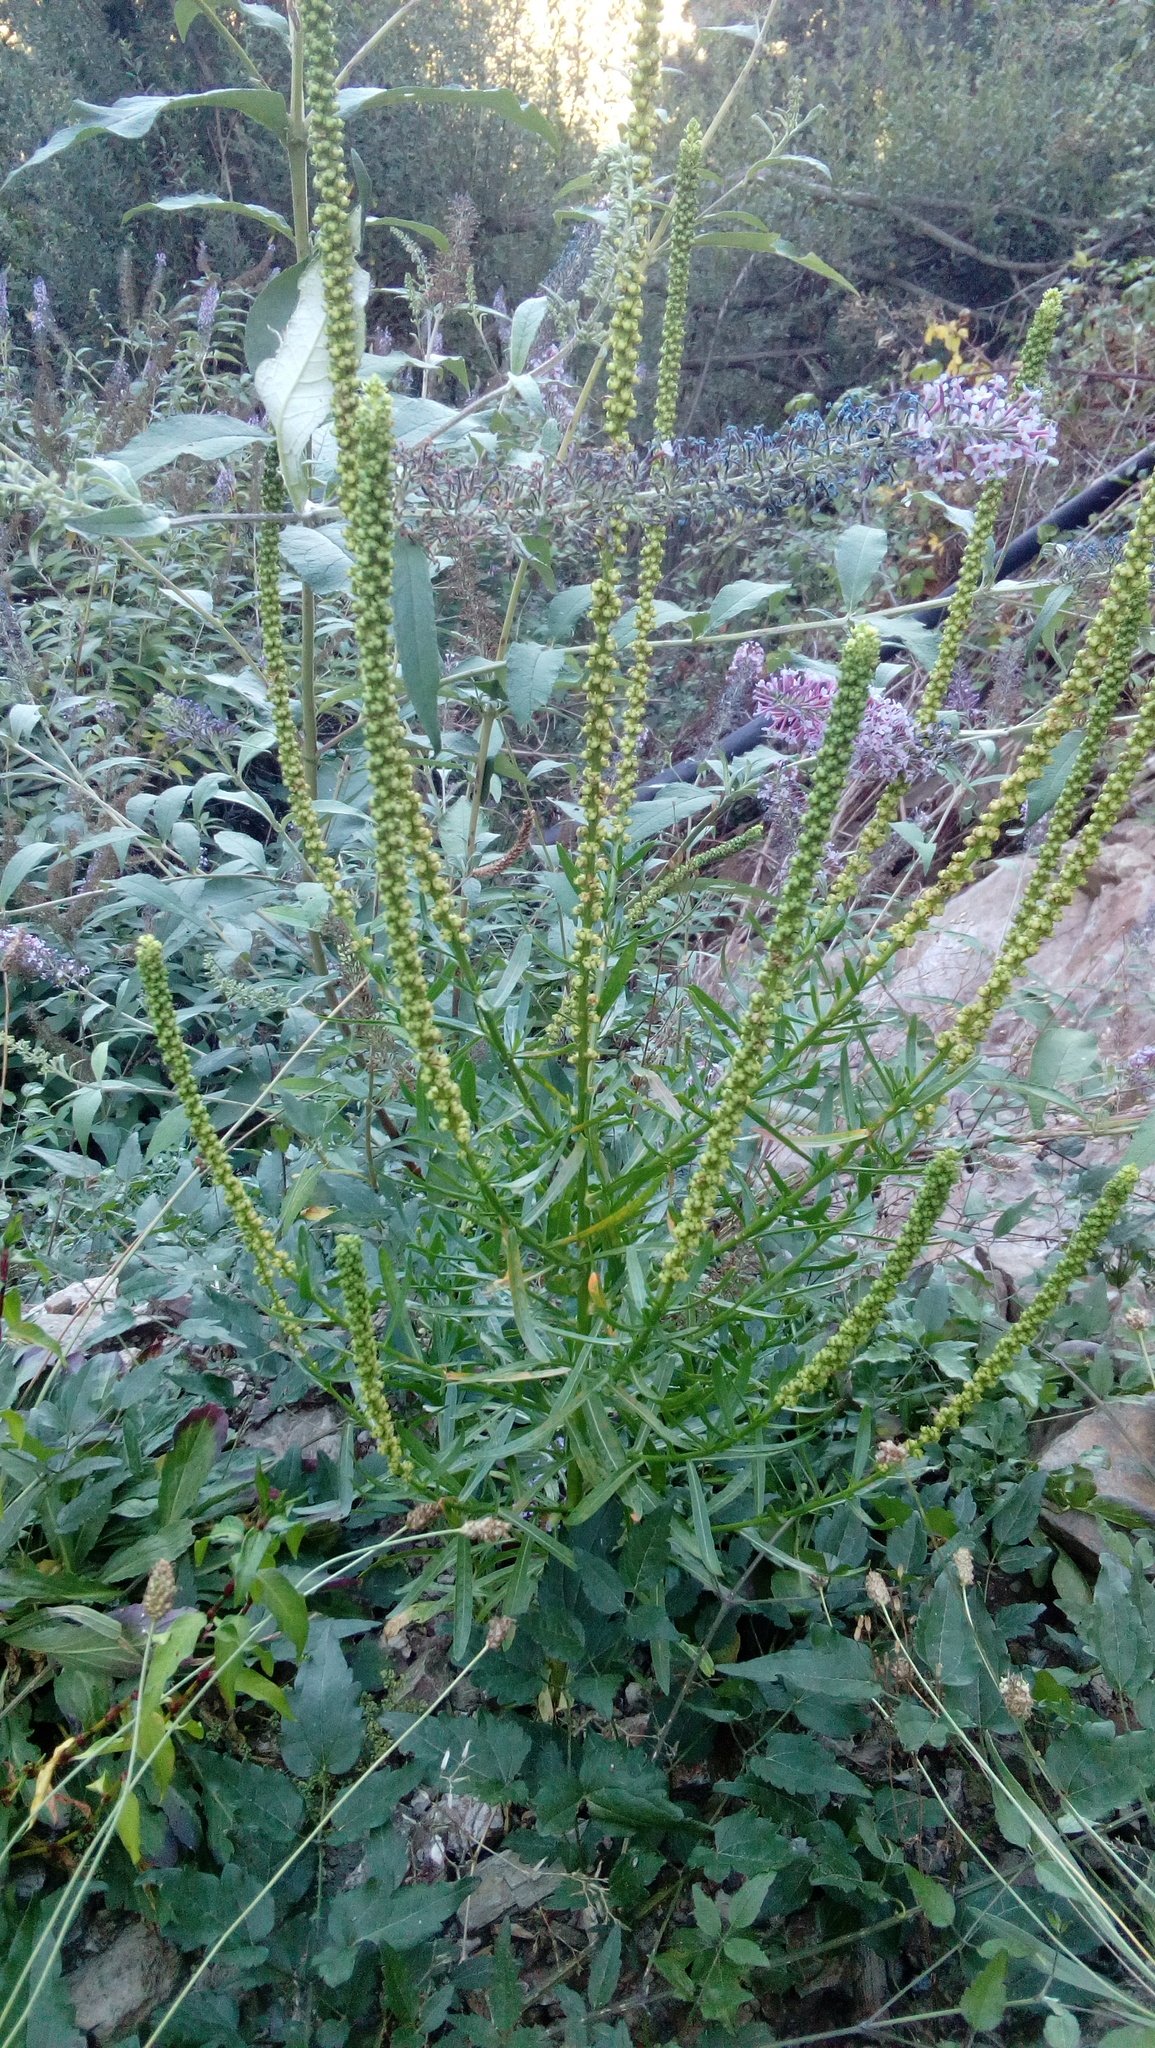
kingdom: Plantae
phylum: Tracheophyta
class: Magnoliopsida
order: Brassicales
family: Resedaceae
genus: Reseda
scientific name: Reseda luteola
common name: Weld
